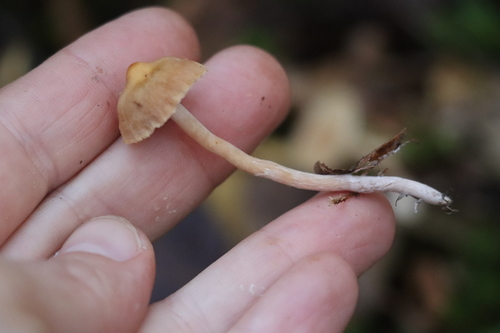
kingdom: Fungi
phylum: Basidiomycota
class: Agaricomycetes
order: Agaricales
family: Cortinariaceae
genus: Cortinarius
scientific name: Cortinarius acutus
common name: Peaked webcap
